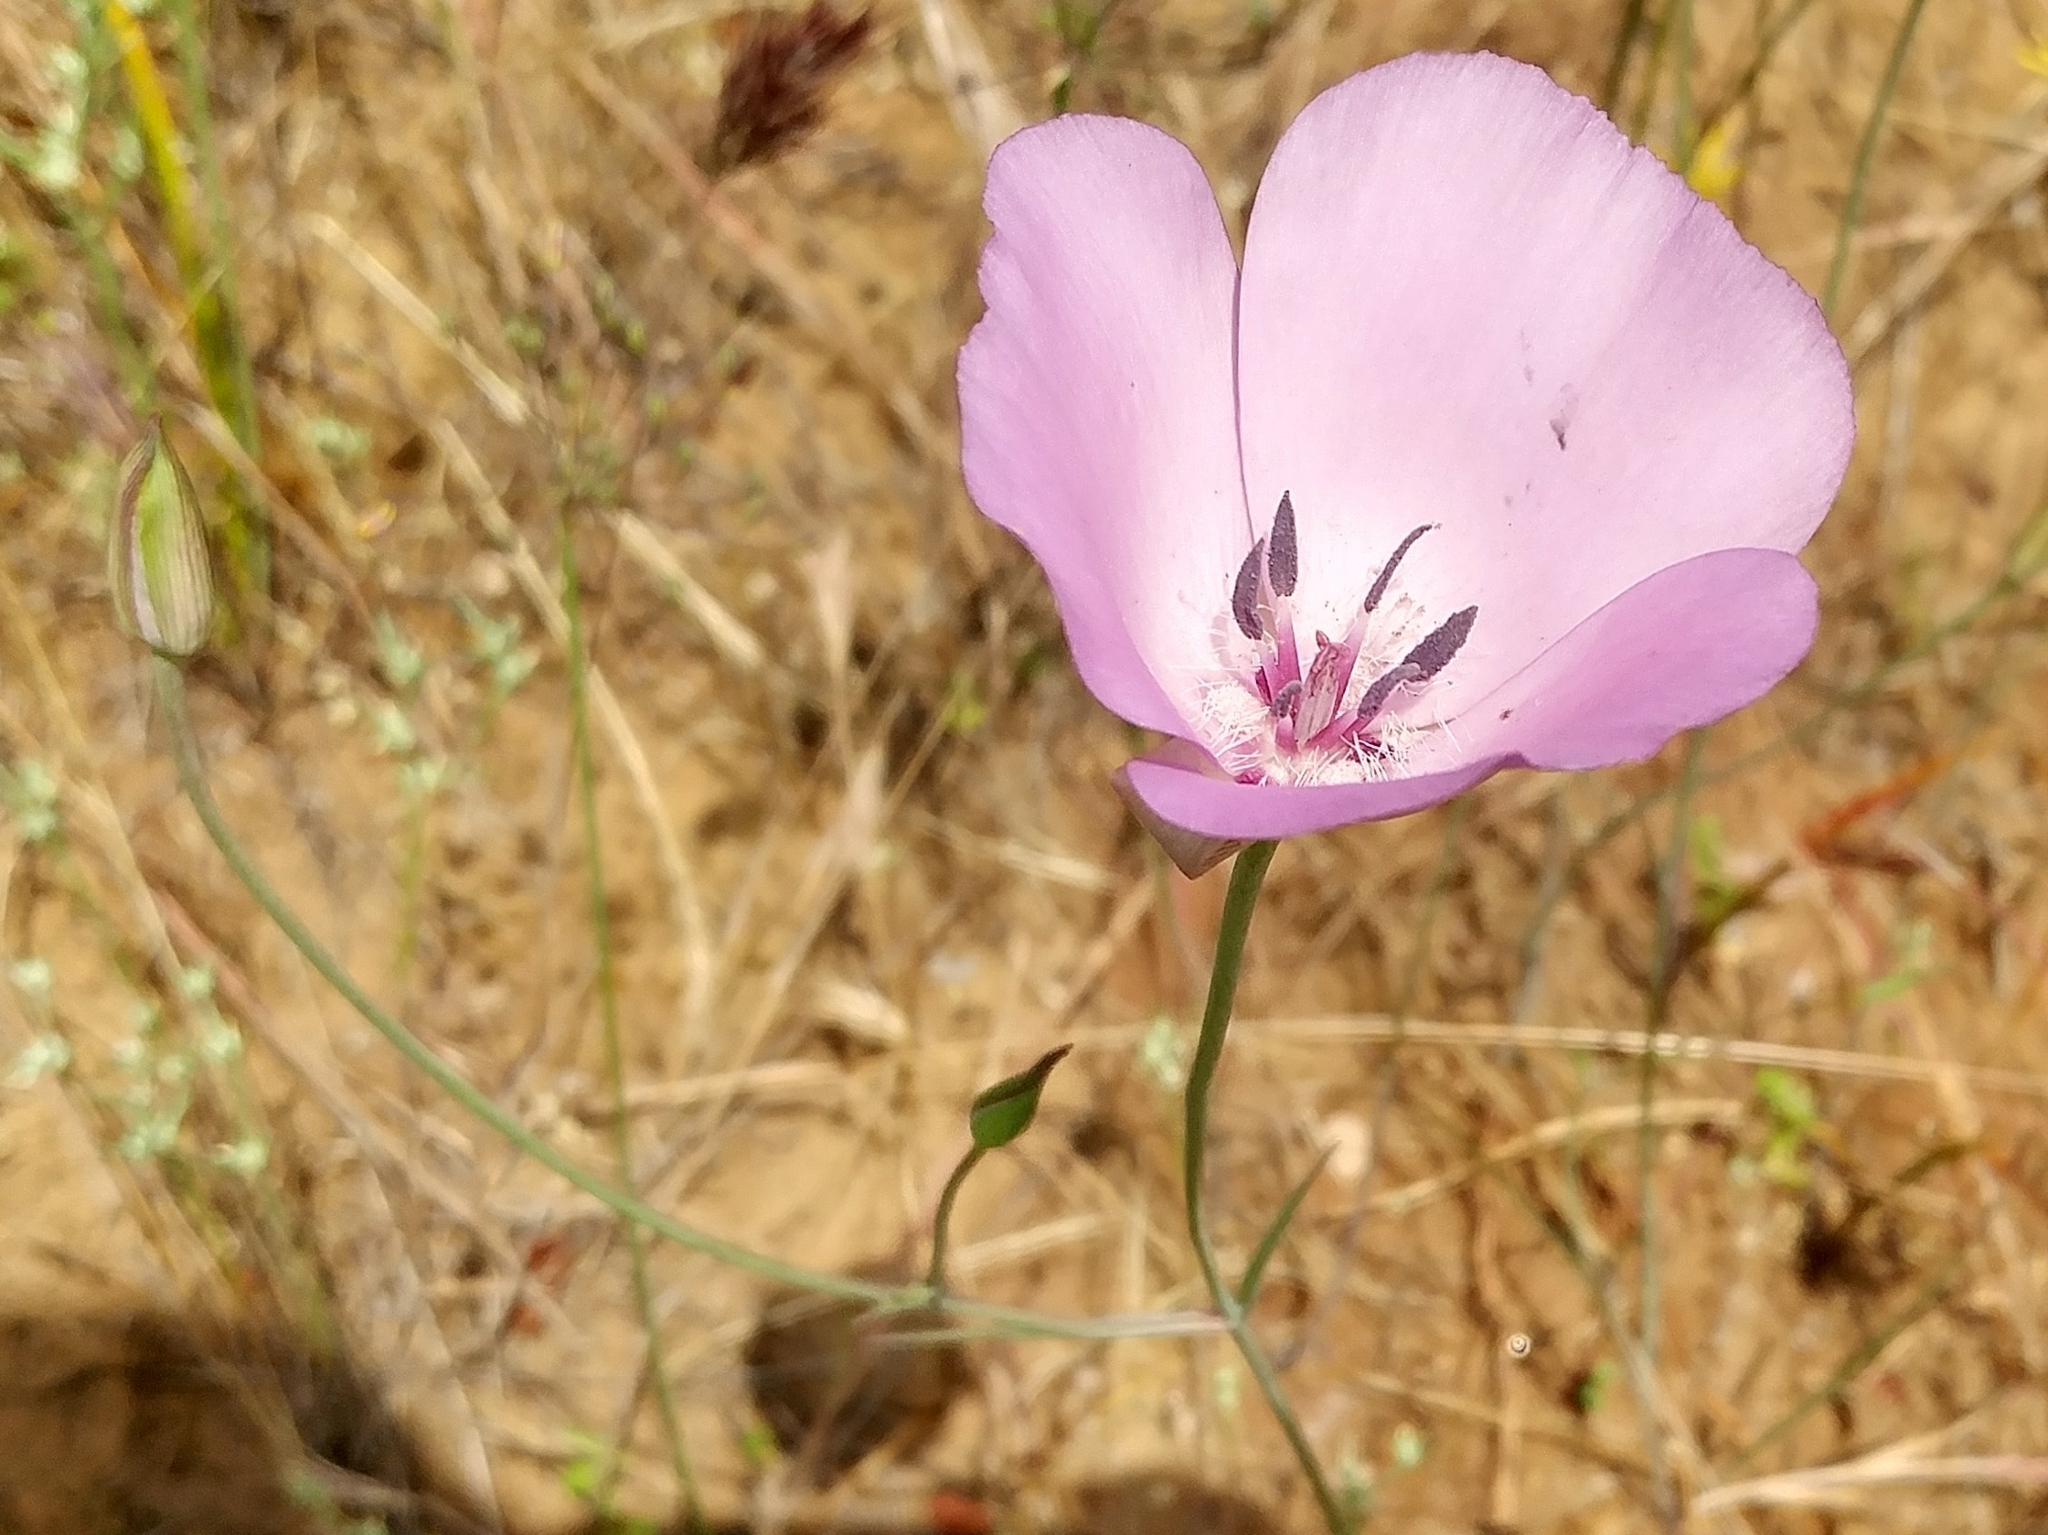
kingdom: Plantae
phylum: Tracheophyta
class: Liliopsida
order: Liliales
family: Liliaceae
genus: Calochortus
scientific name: Calochortus splendens
